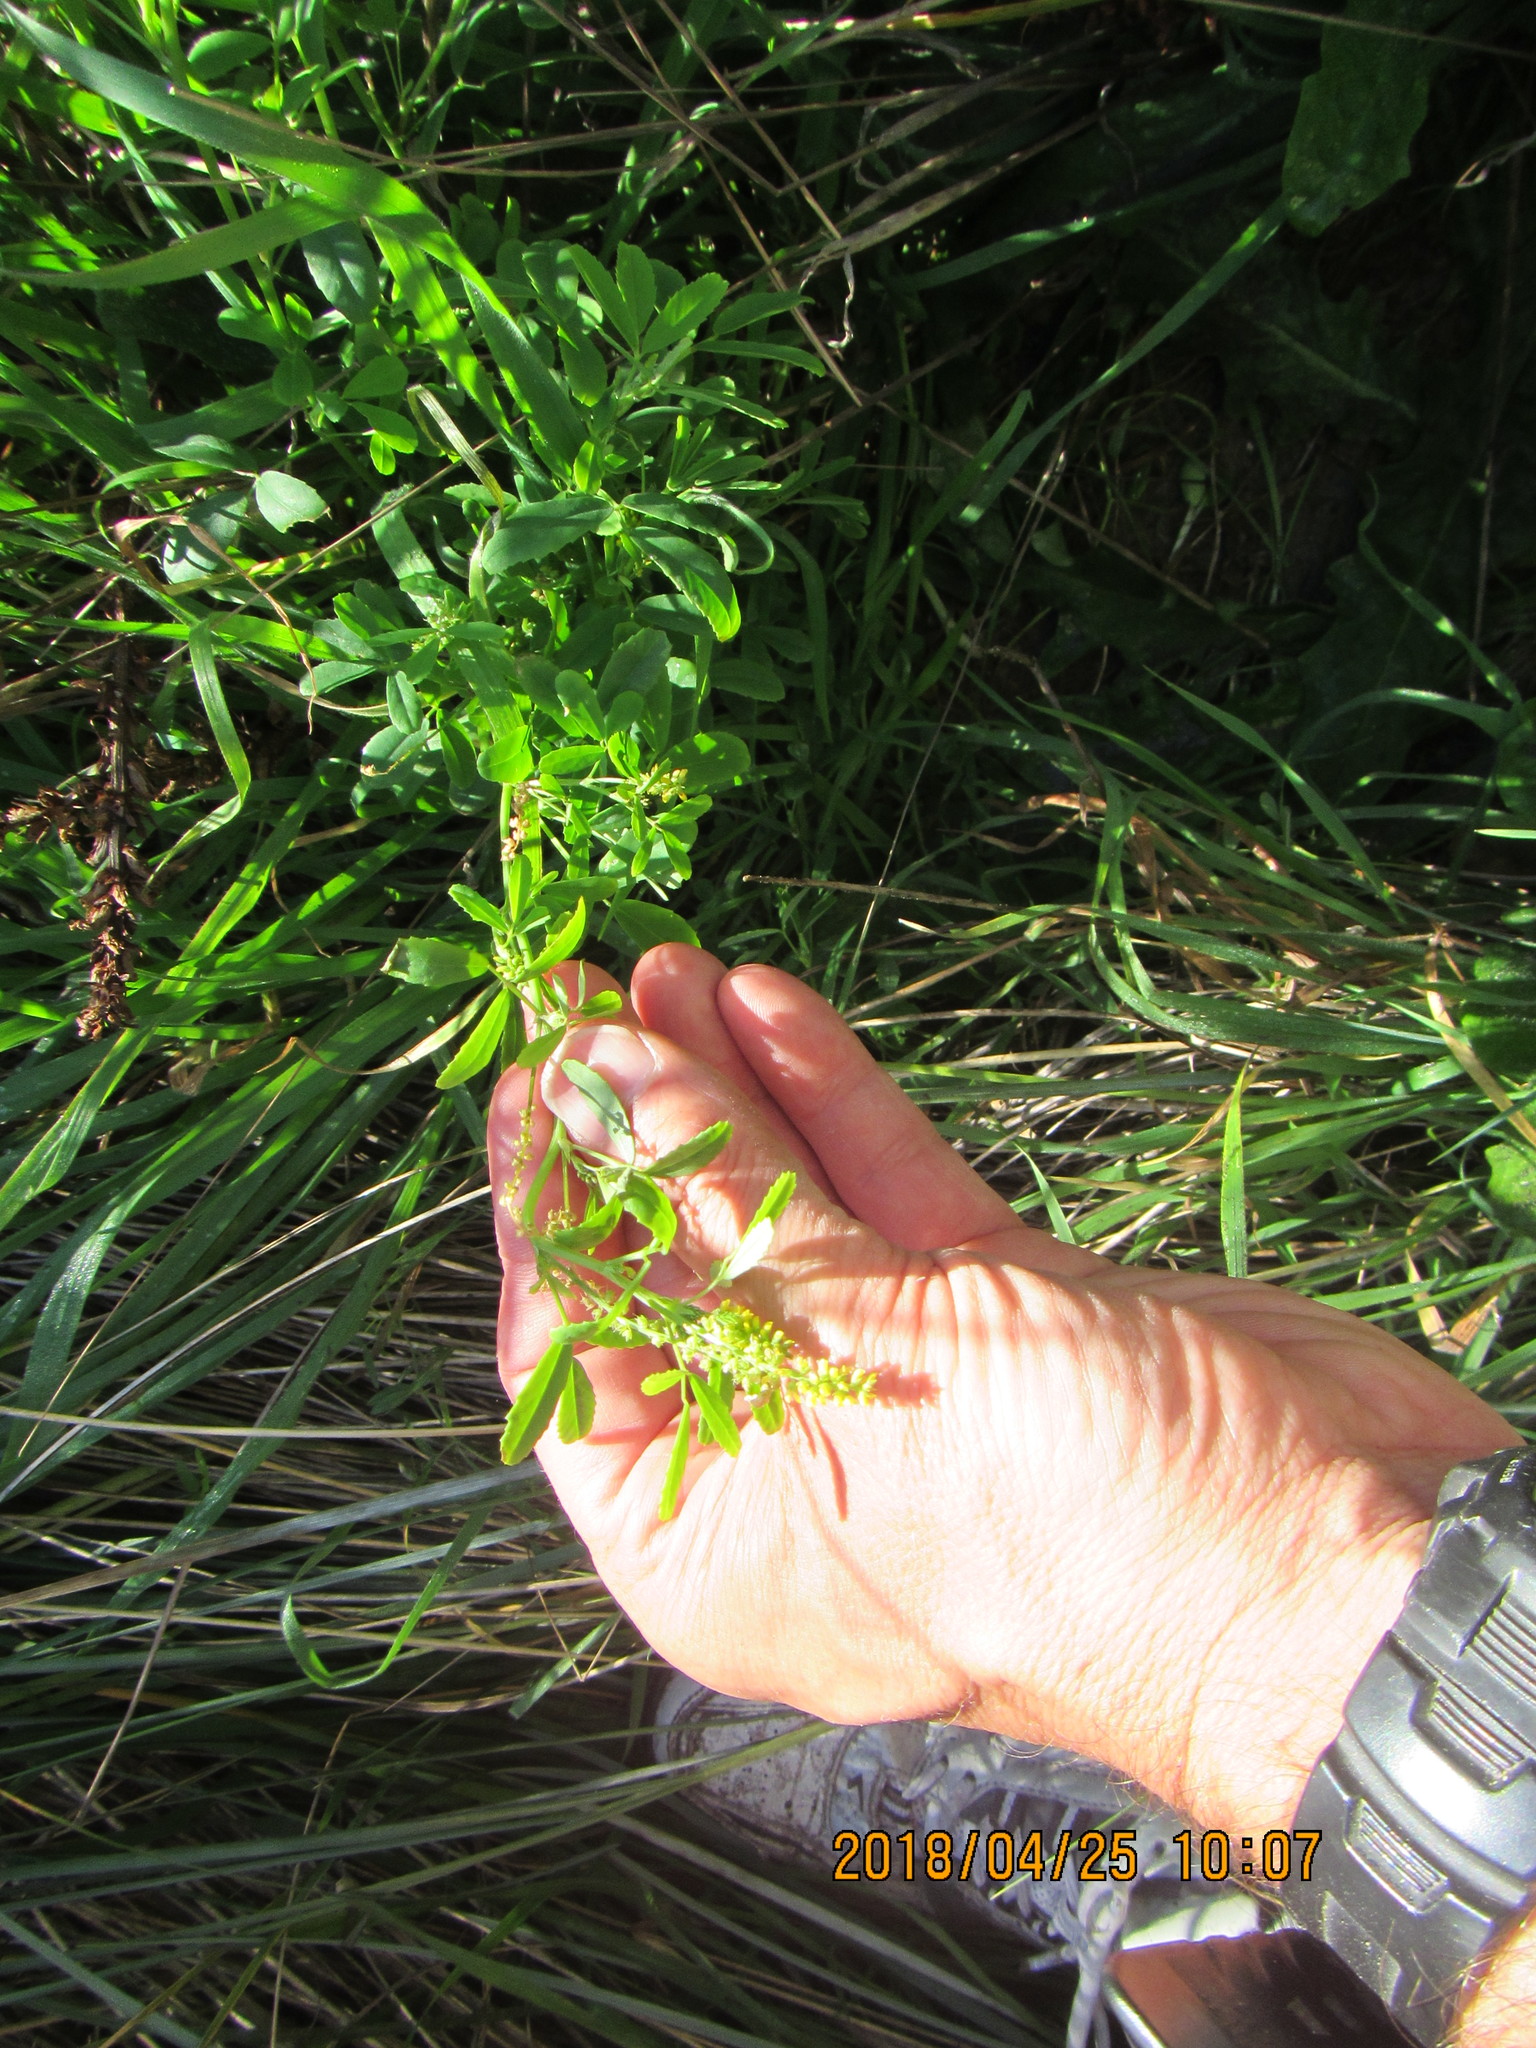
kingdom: Plantae
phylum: Tracheophyta
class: Magnoliopsida
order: Fabales
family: Fabaceae
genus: Melilotus
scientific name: Melilotus indicus
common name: Small melilot
